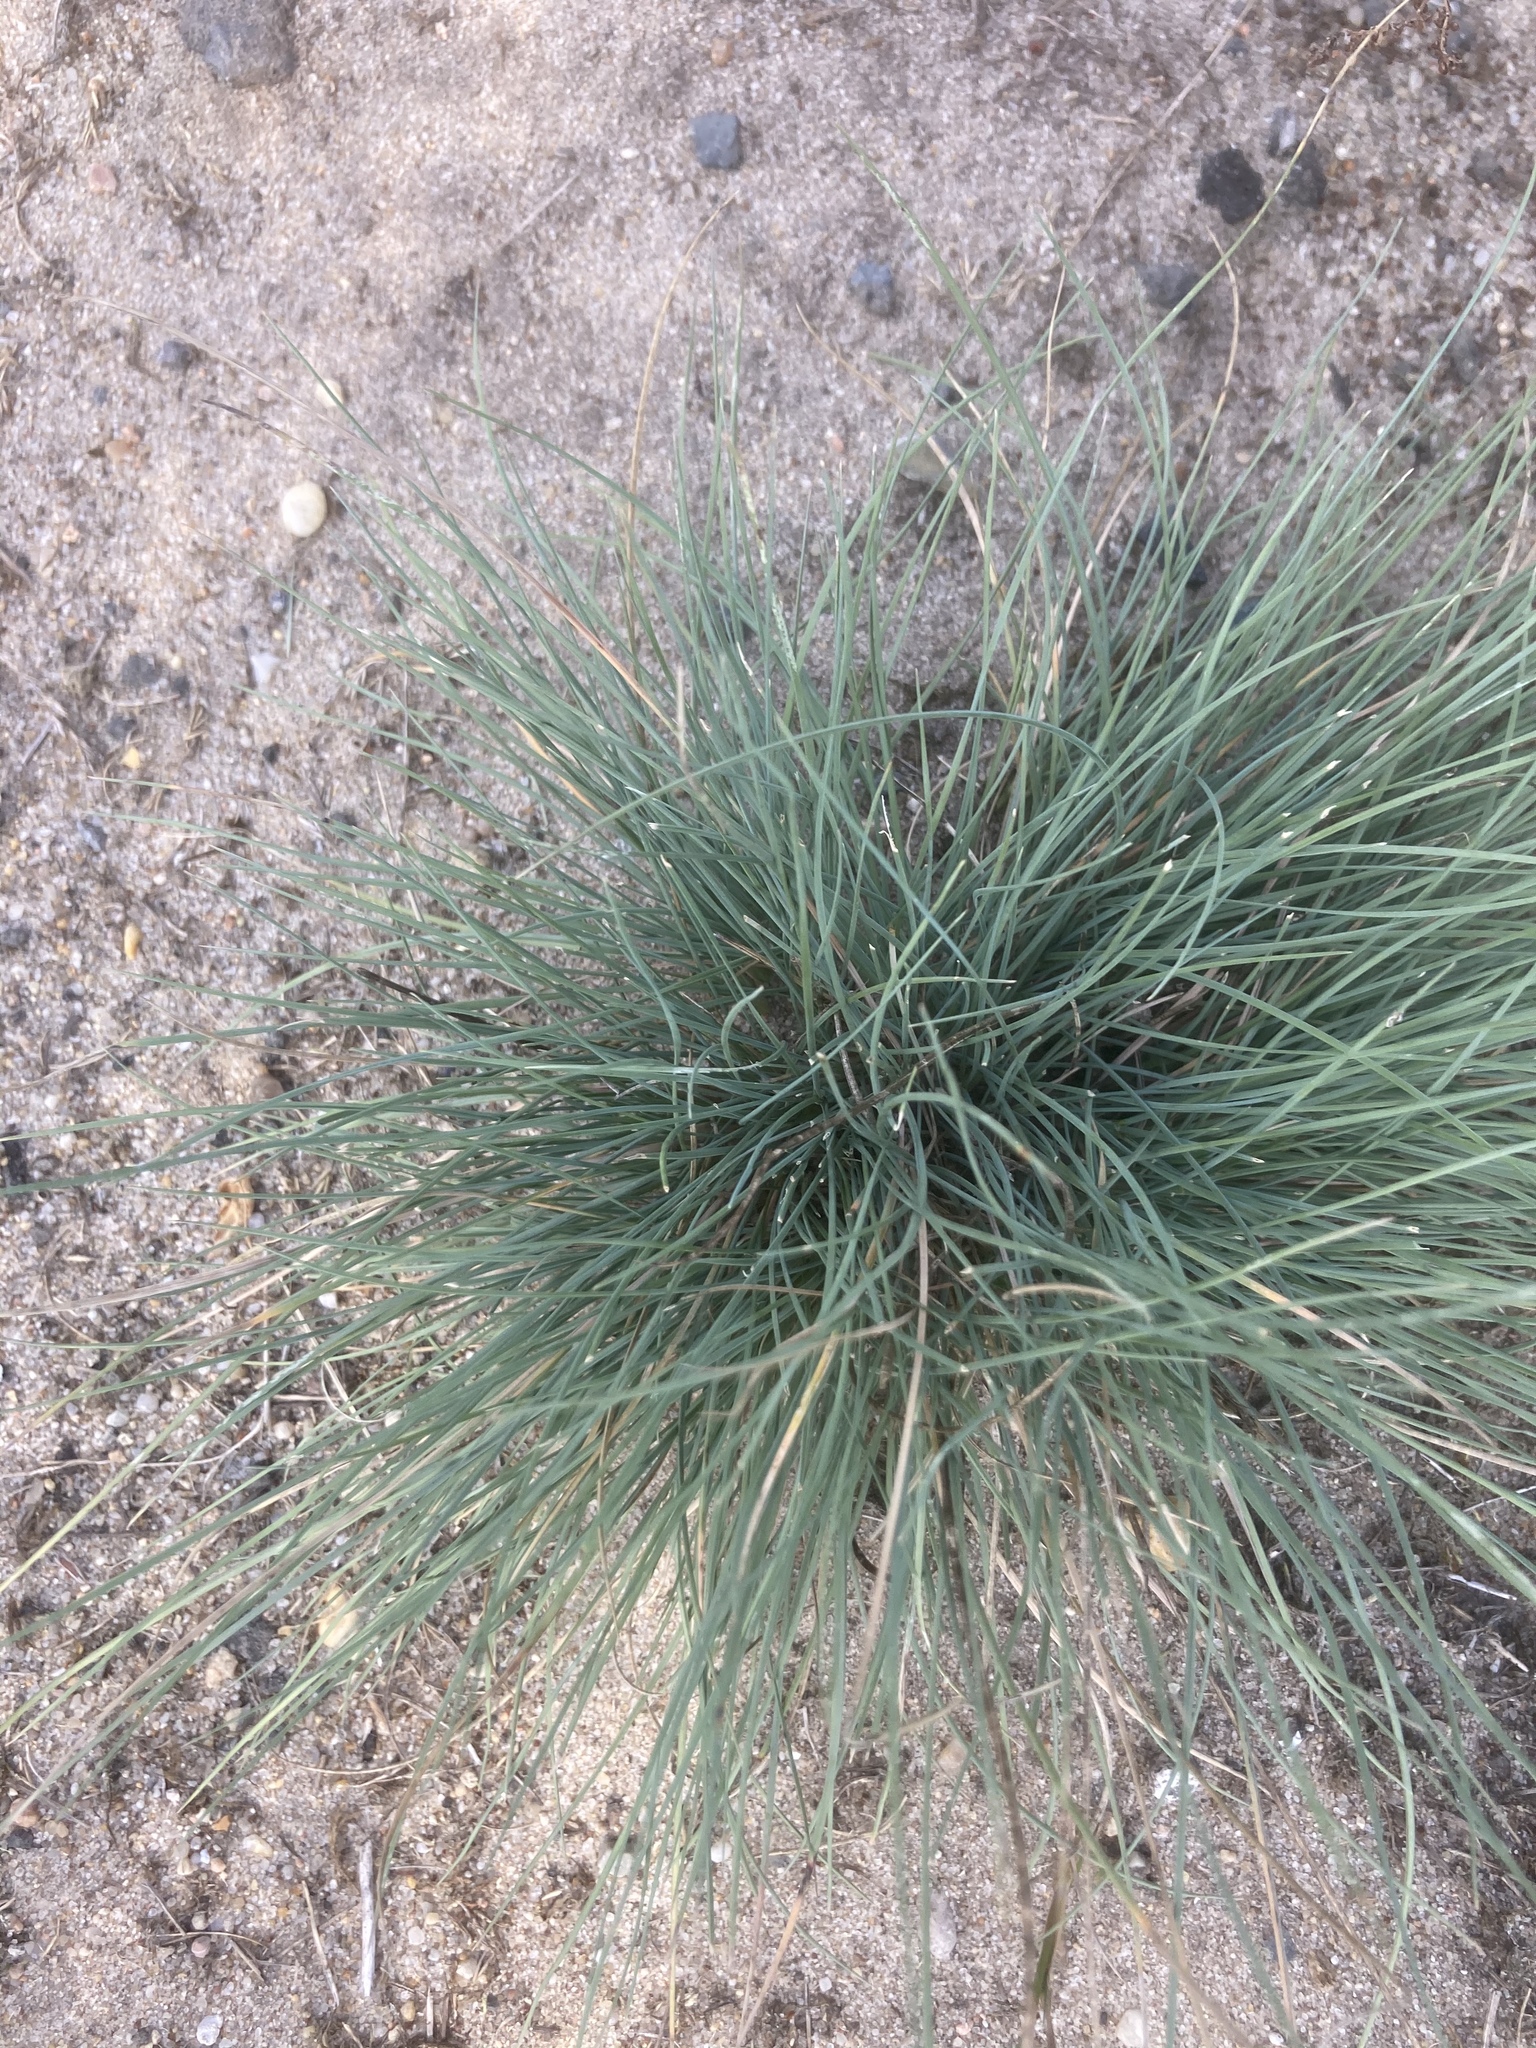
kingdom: Plantae
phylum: Tracheophyta
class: Liliopsida
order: Poales
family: Poaceae
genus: Corynephorus
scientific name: Corynephorus canescens
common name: Grey hair-grass
